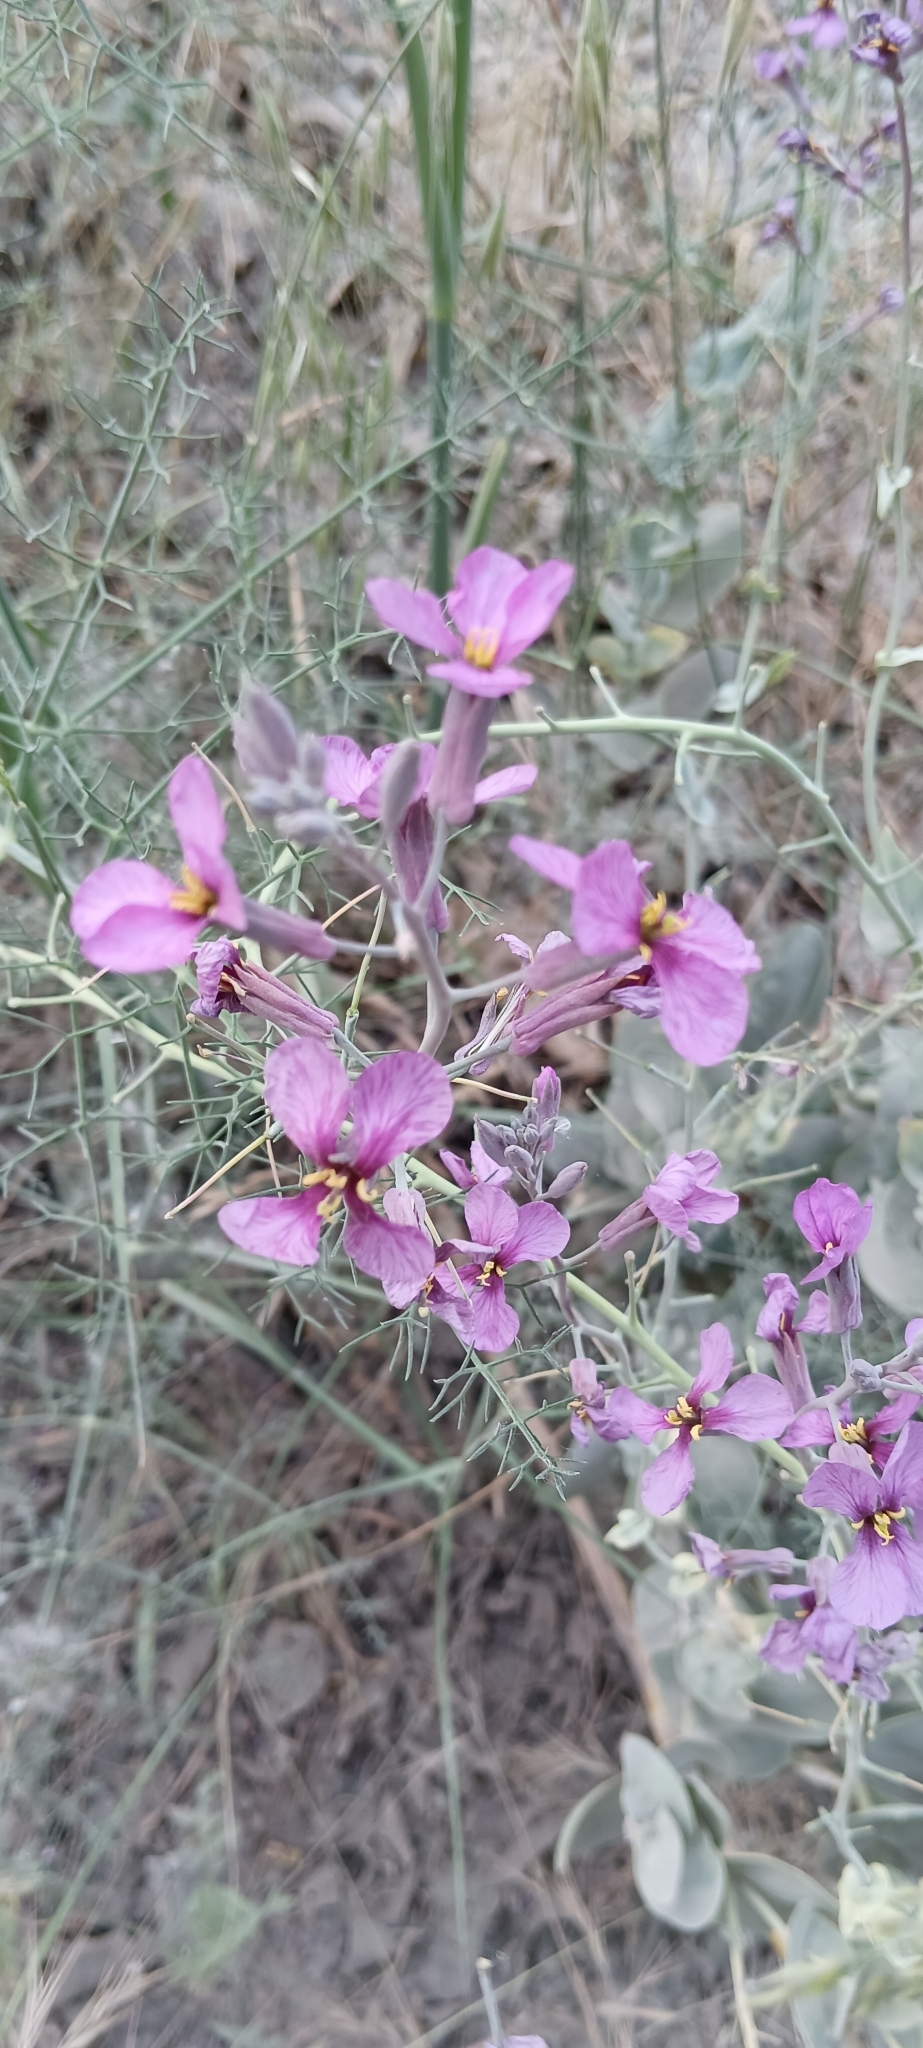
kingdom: Plantae
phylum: Tracheophyta
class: Magnoliopsida
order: Brassicales
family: Brassicaceae
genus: Moricandia
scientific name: Moricandia arvensis
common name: Purple mistress
